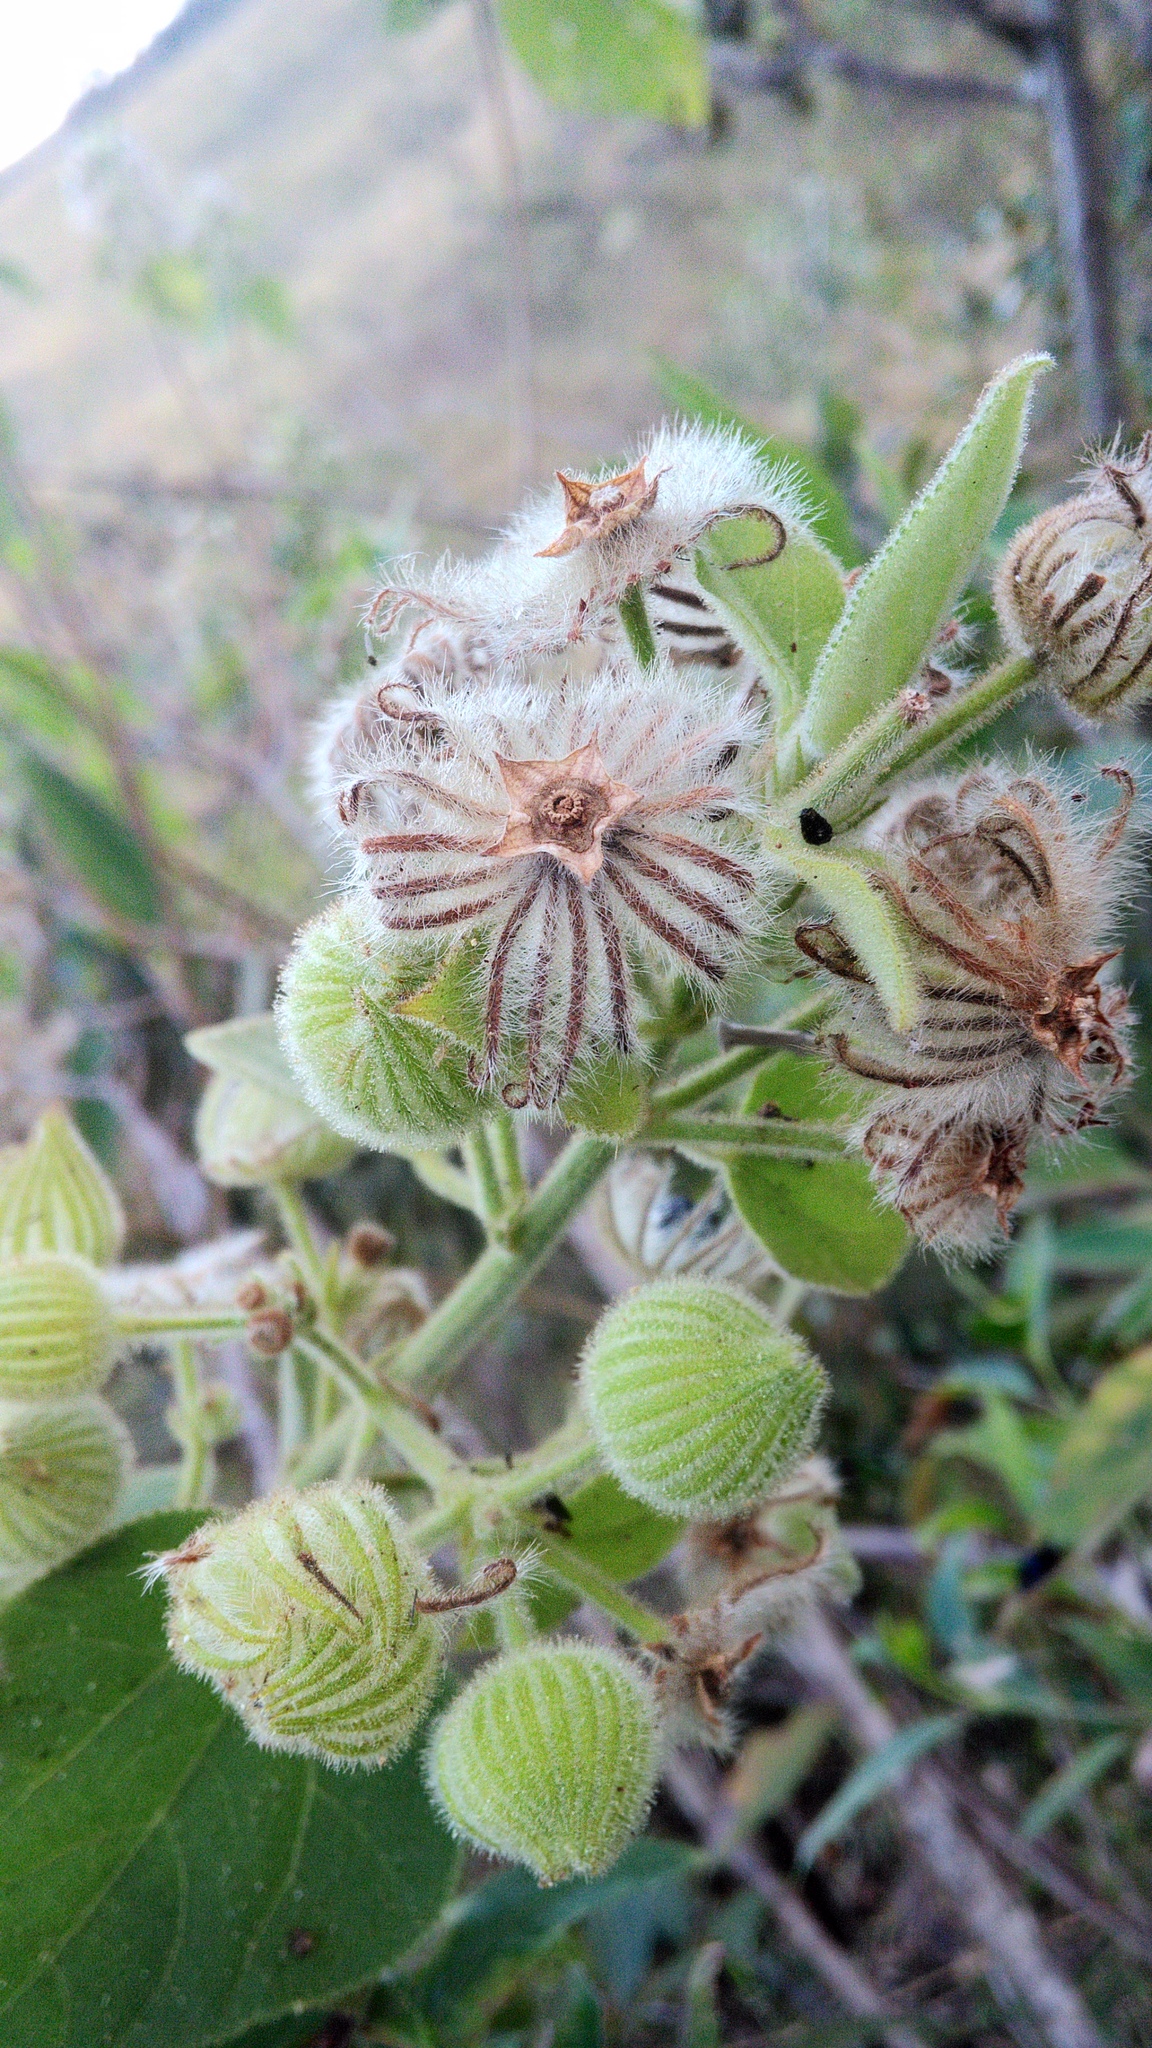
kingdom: Plantae
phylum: Tracheophyta
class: Magnoliopsida
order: Malvales
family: Malvaceae
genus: Pavonia
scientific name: Pavonia malacophylla
